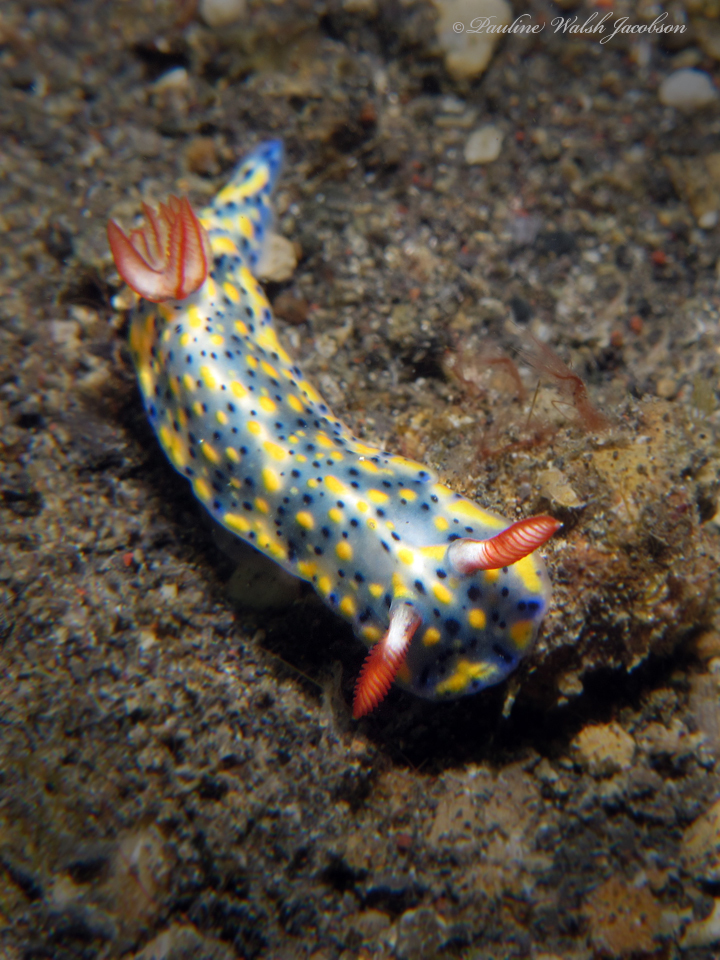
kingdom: Animalia
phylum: Mollusca
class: Gastropoda
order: Nudibranchia
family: Chromodorididae
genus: Hypselodoris
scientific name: Hypselodoris infucata
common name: Mottled dorid
